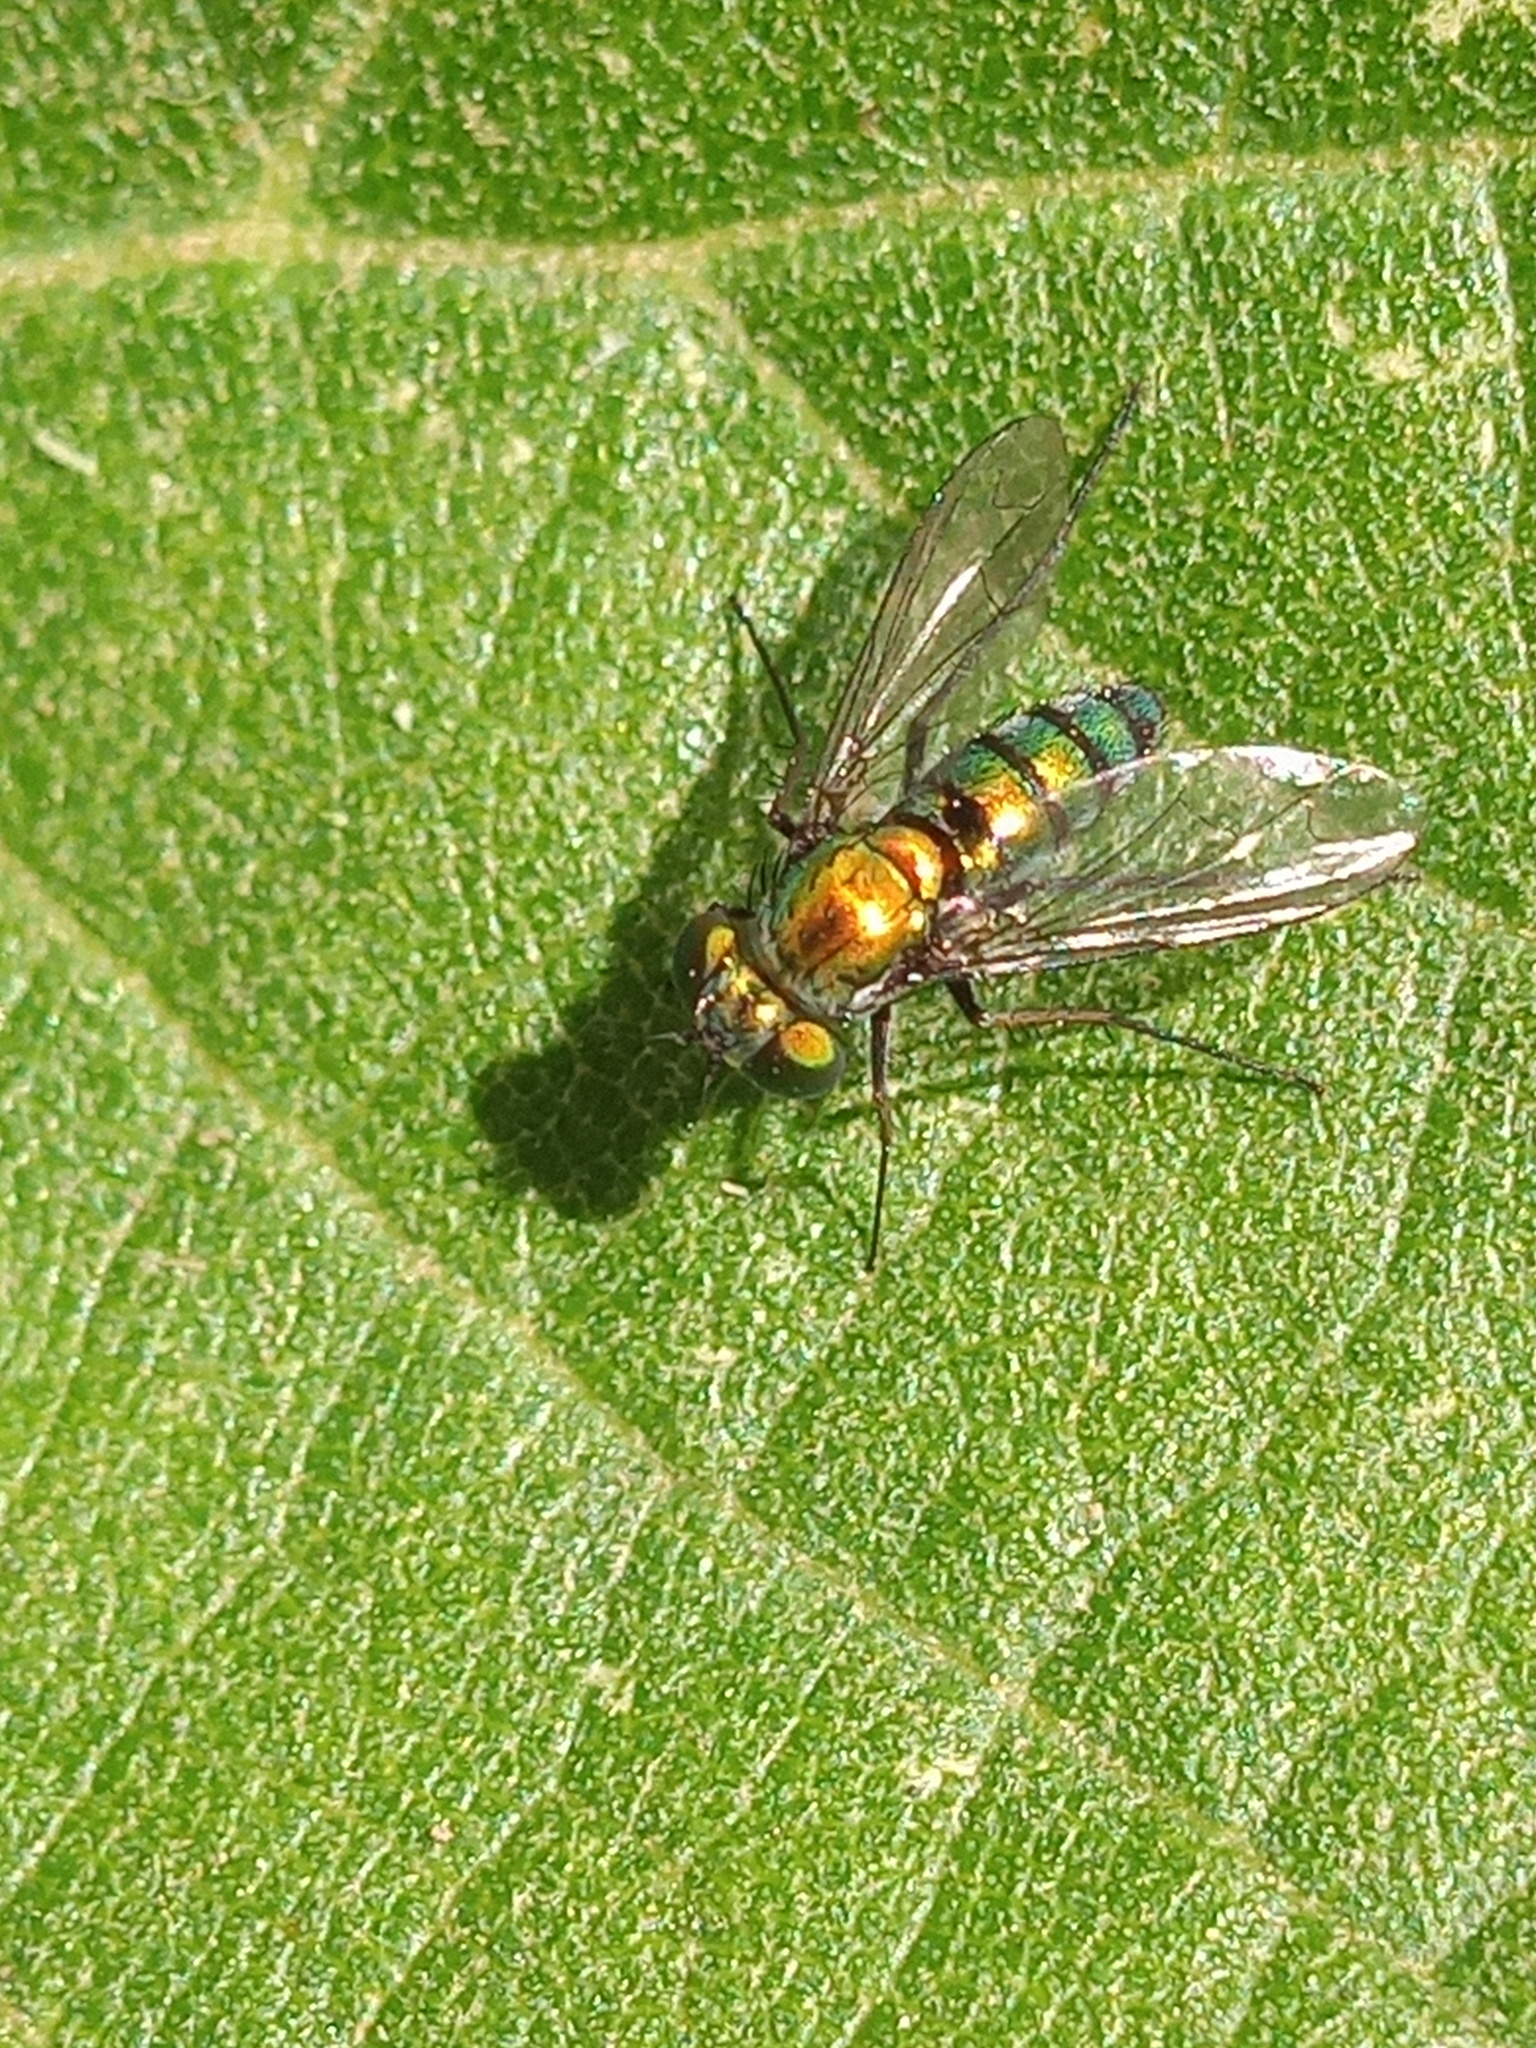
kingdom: Animalia
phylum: Arthropoda
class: Insecta
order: Diptera
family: Dolichopodidae
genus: Condylostylus
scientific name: Condylostylus longicornis
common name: Long-legged fly
